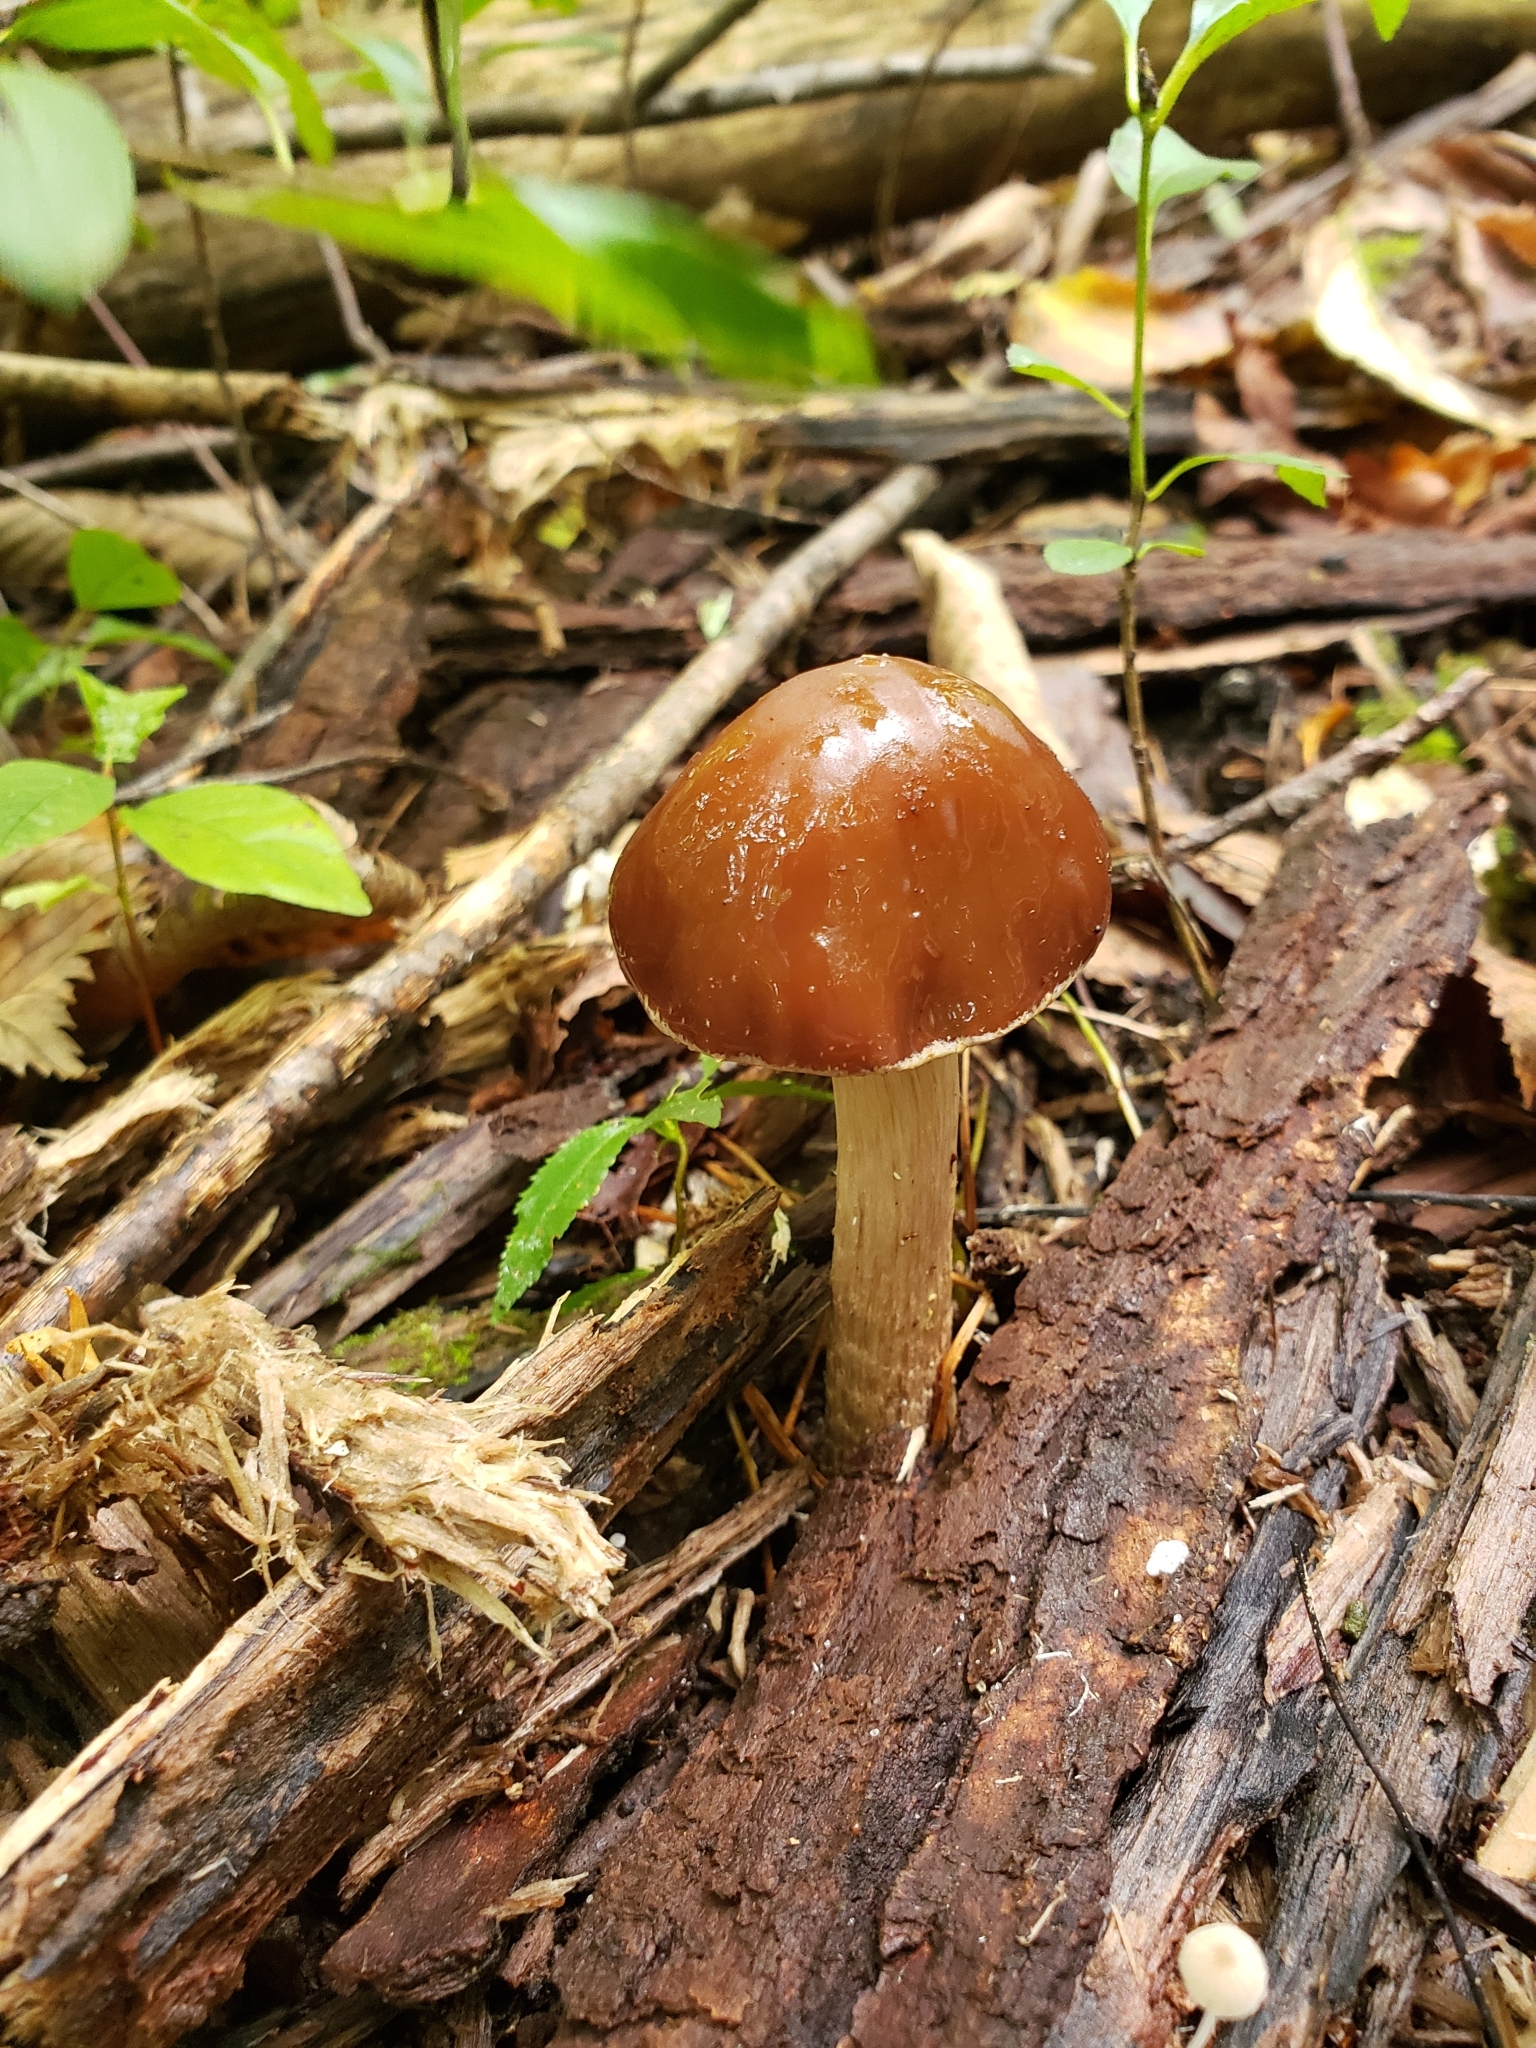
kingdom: Fungi
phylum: Basidiomycota
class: Agaricomycetes
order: Agaricales
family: Tubariaceae
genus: Cyclocybe
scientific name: Cyclocybe erebia
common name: Dark fieldcap
